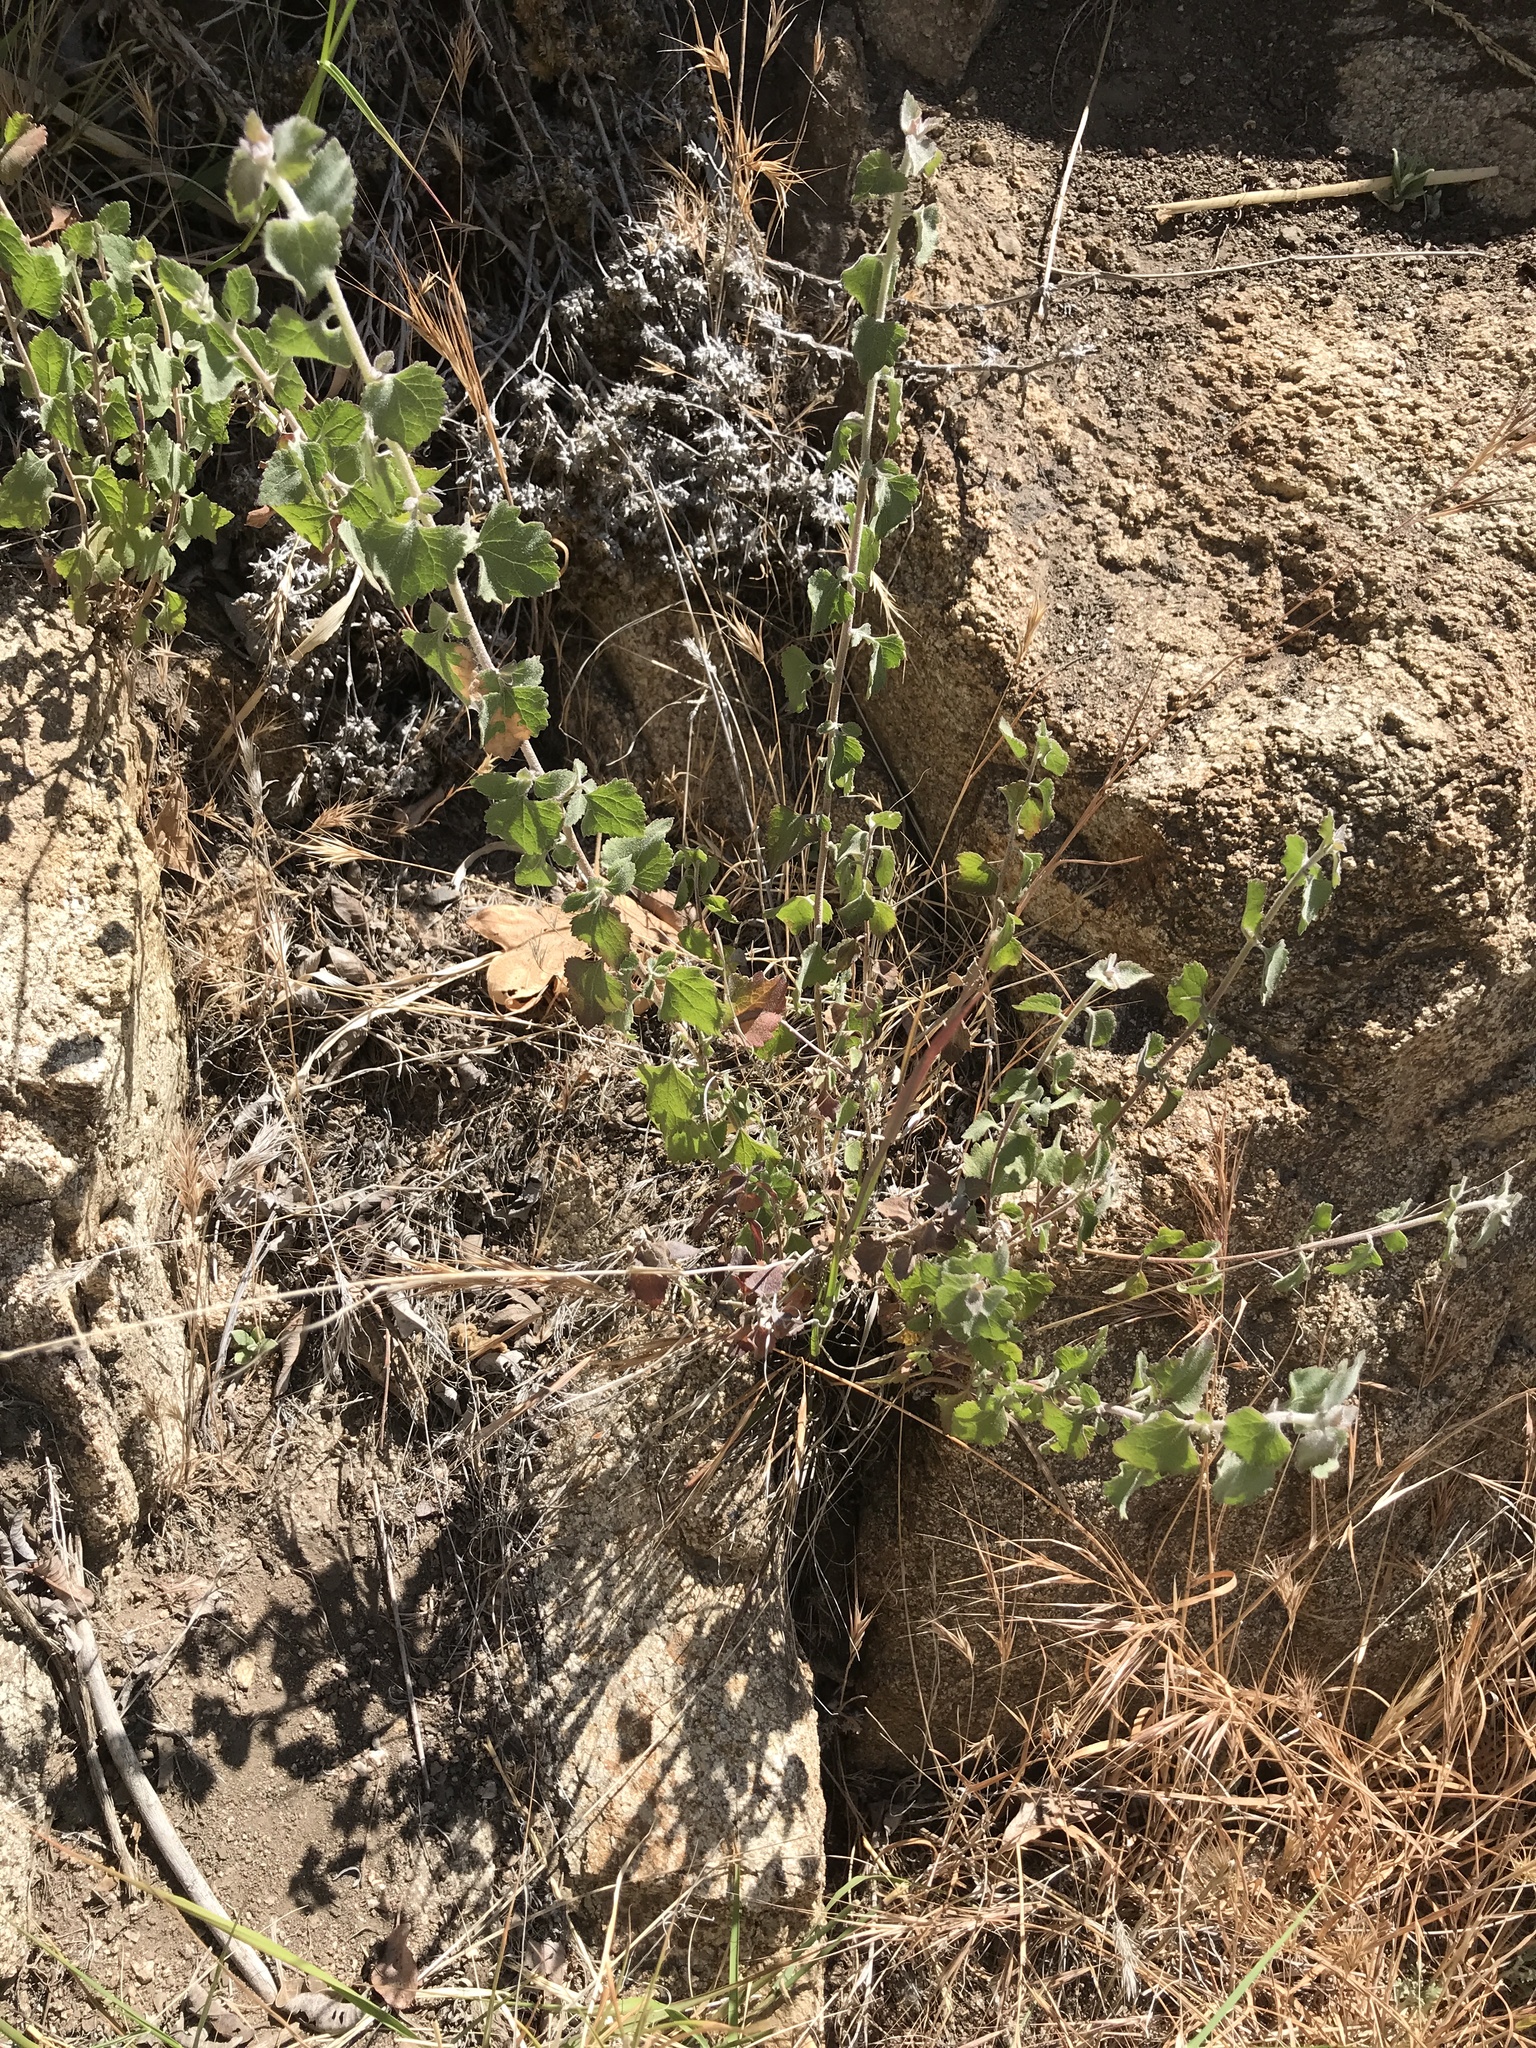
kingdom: Plantae
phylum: Tracheophyta
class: Magnoliopsida
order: Asterales
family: Asteraceae
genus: Brickellia
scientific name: Brickellia californica
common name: California brickellbush
